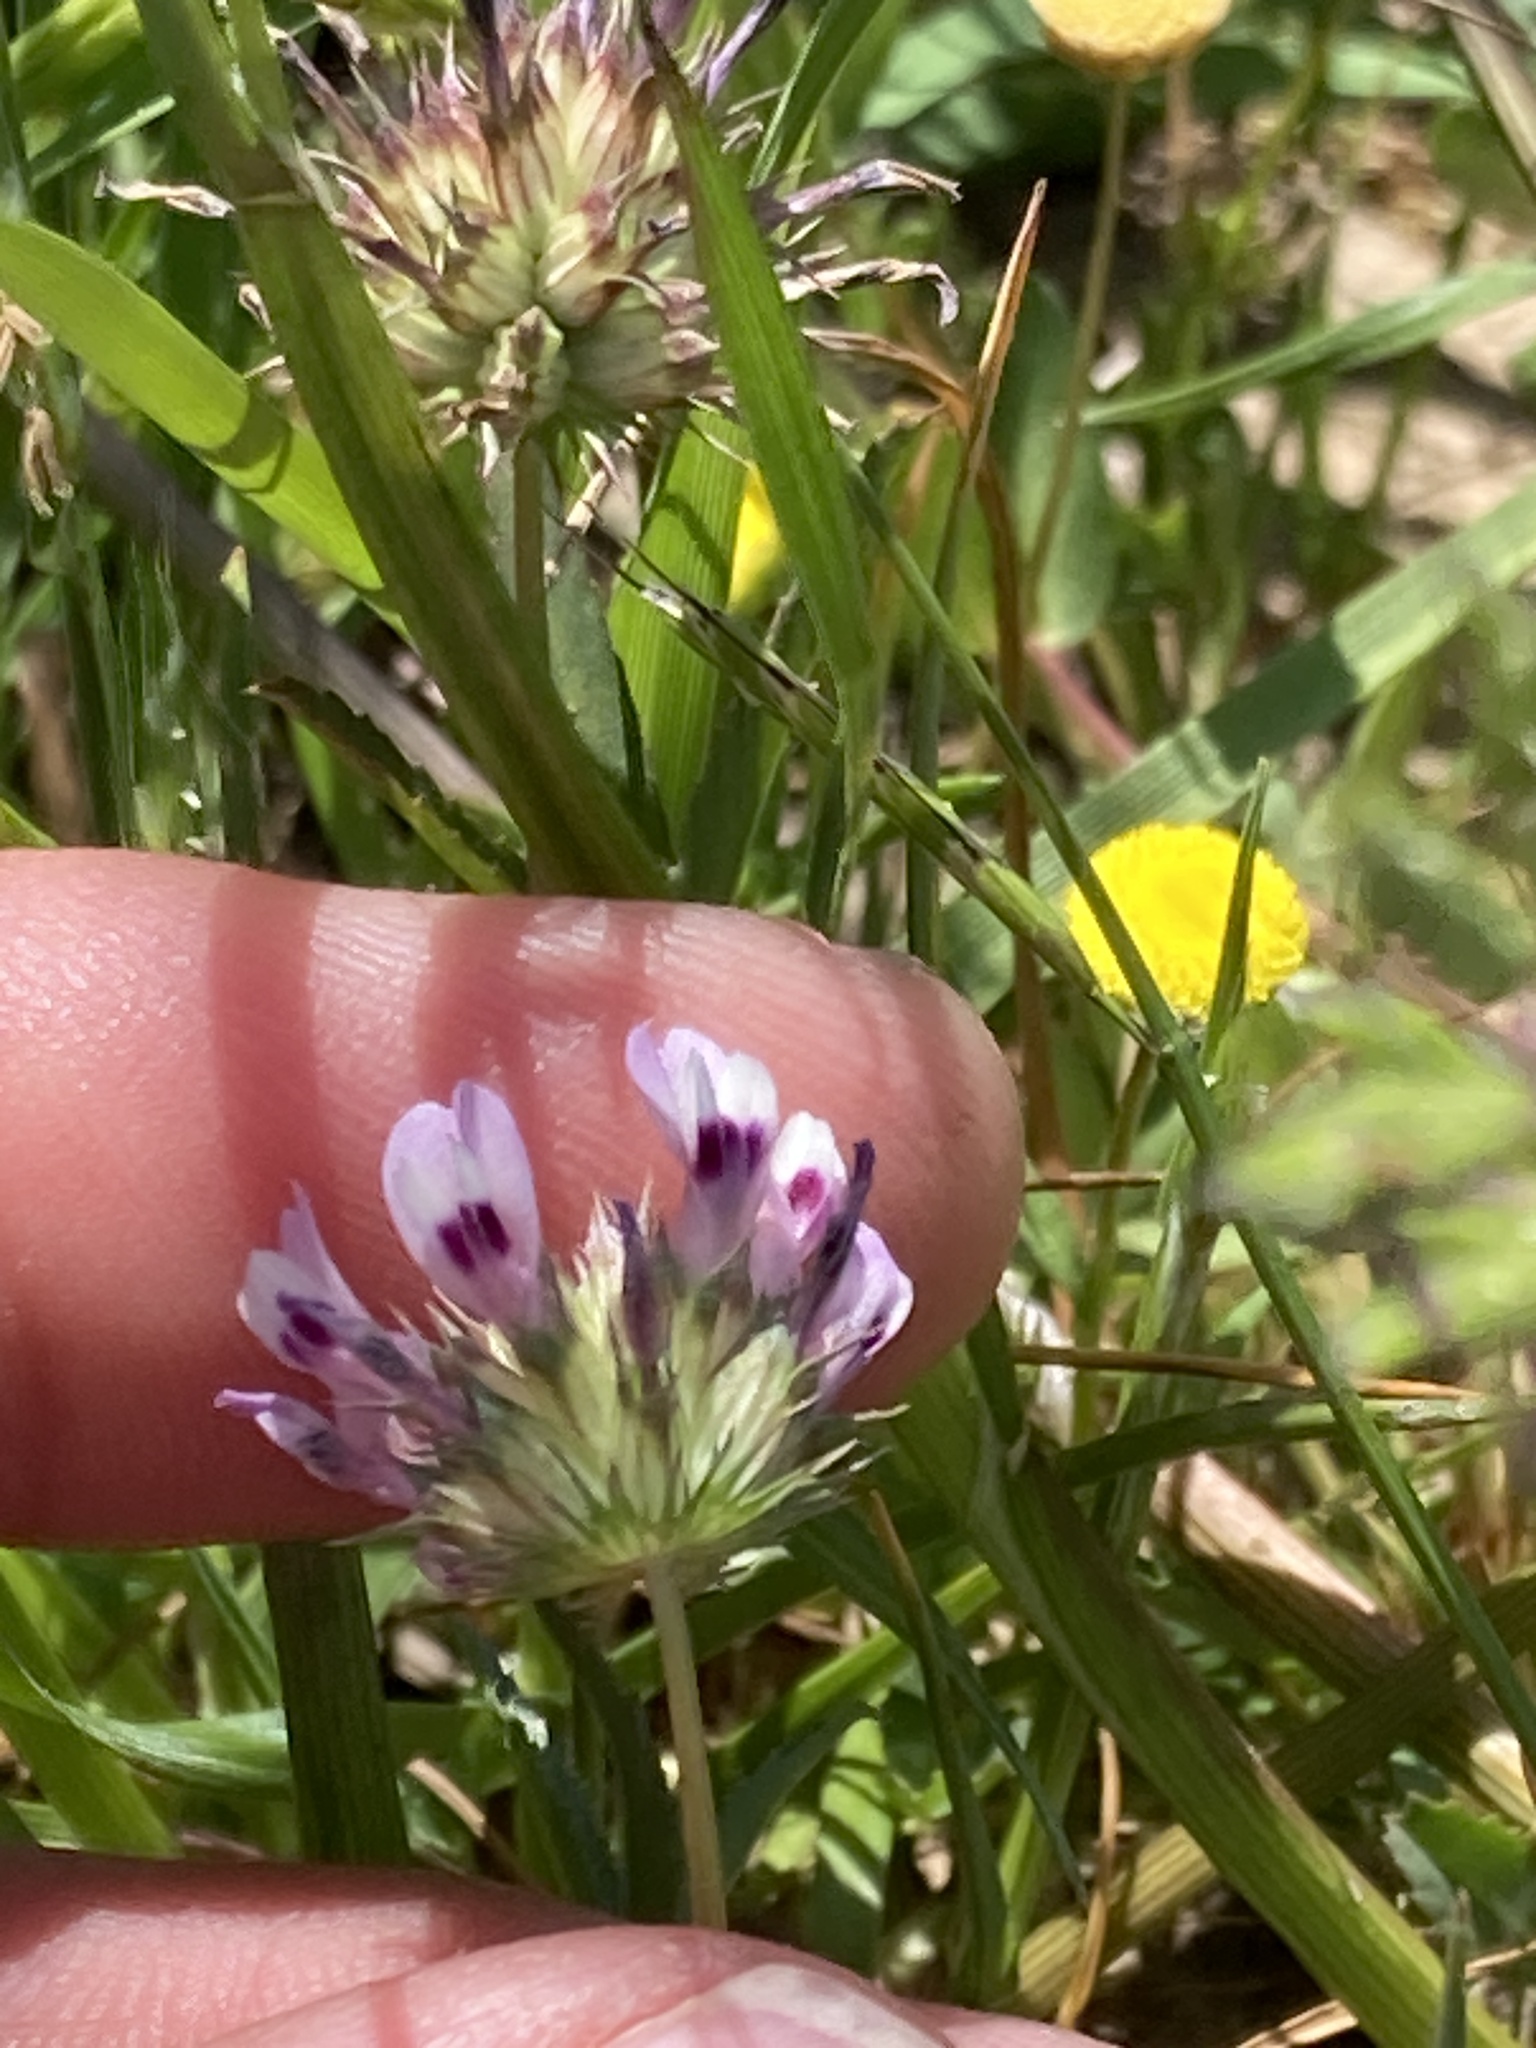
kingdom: Plantae
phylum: Tracheophyta
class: Magnoliopsida
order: Fabales
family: Fabaceae
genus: Trifolium
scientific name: Trifolium willdenovii
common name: Tomcat clover
